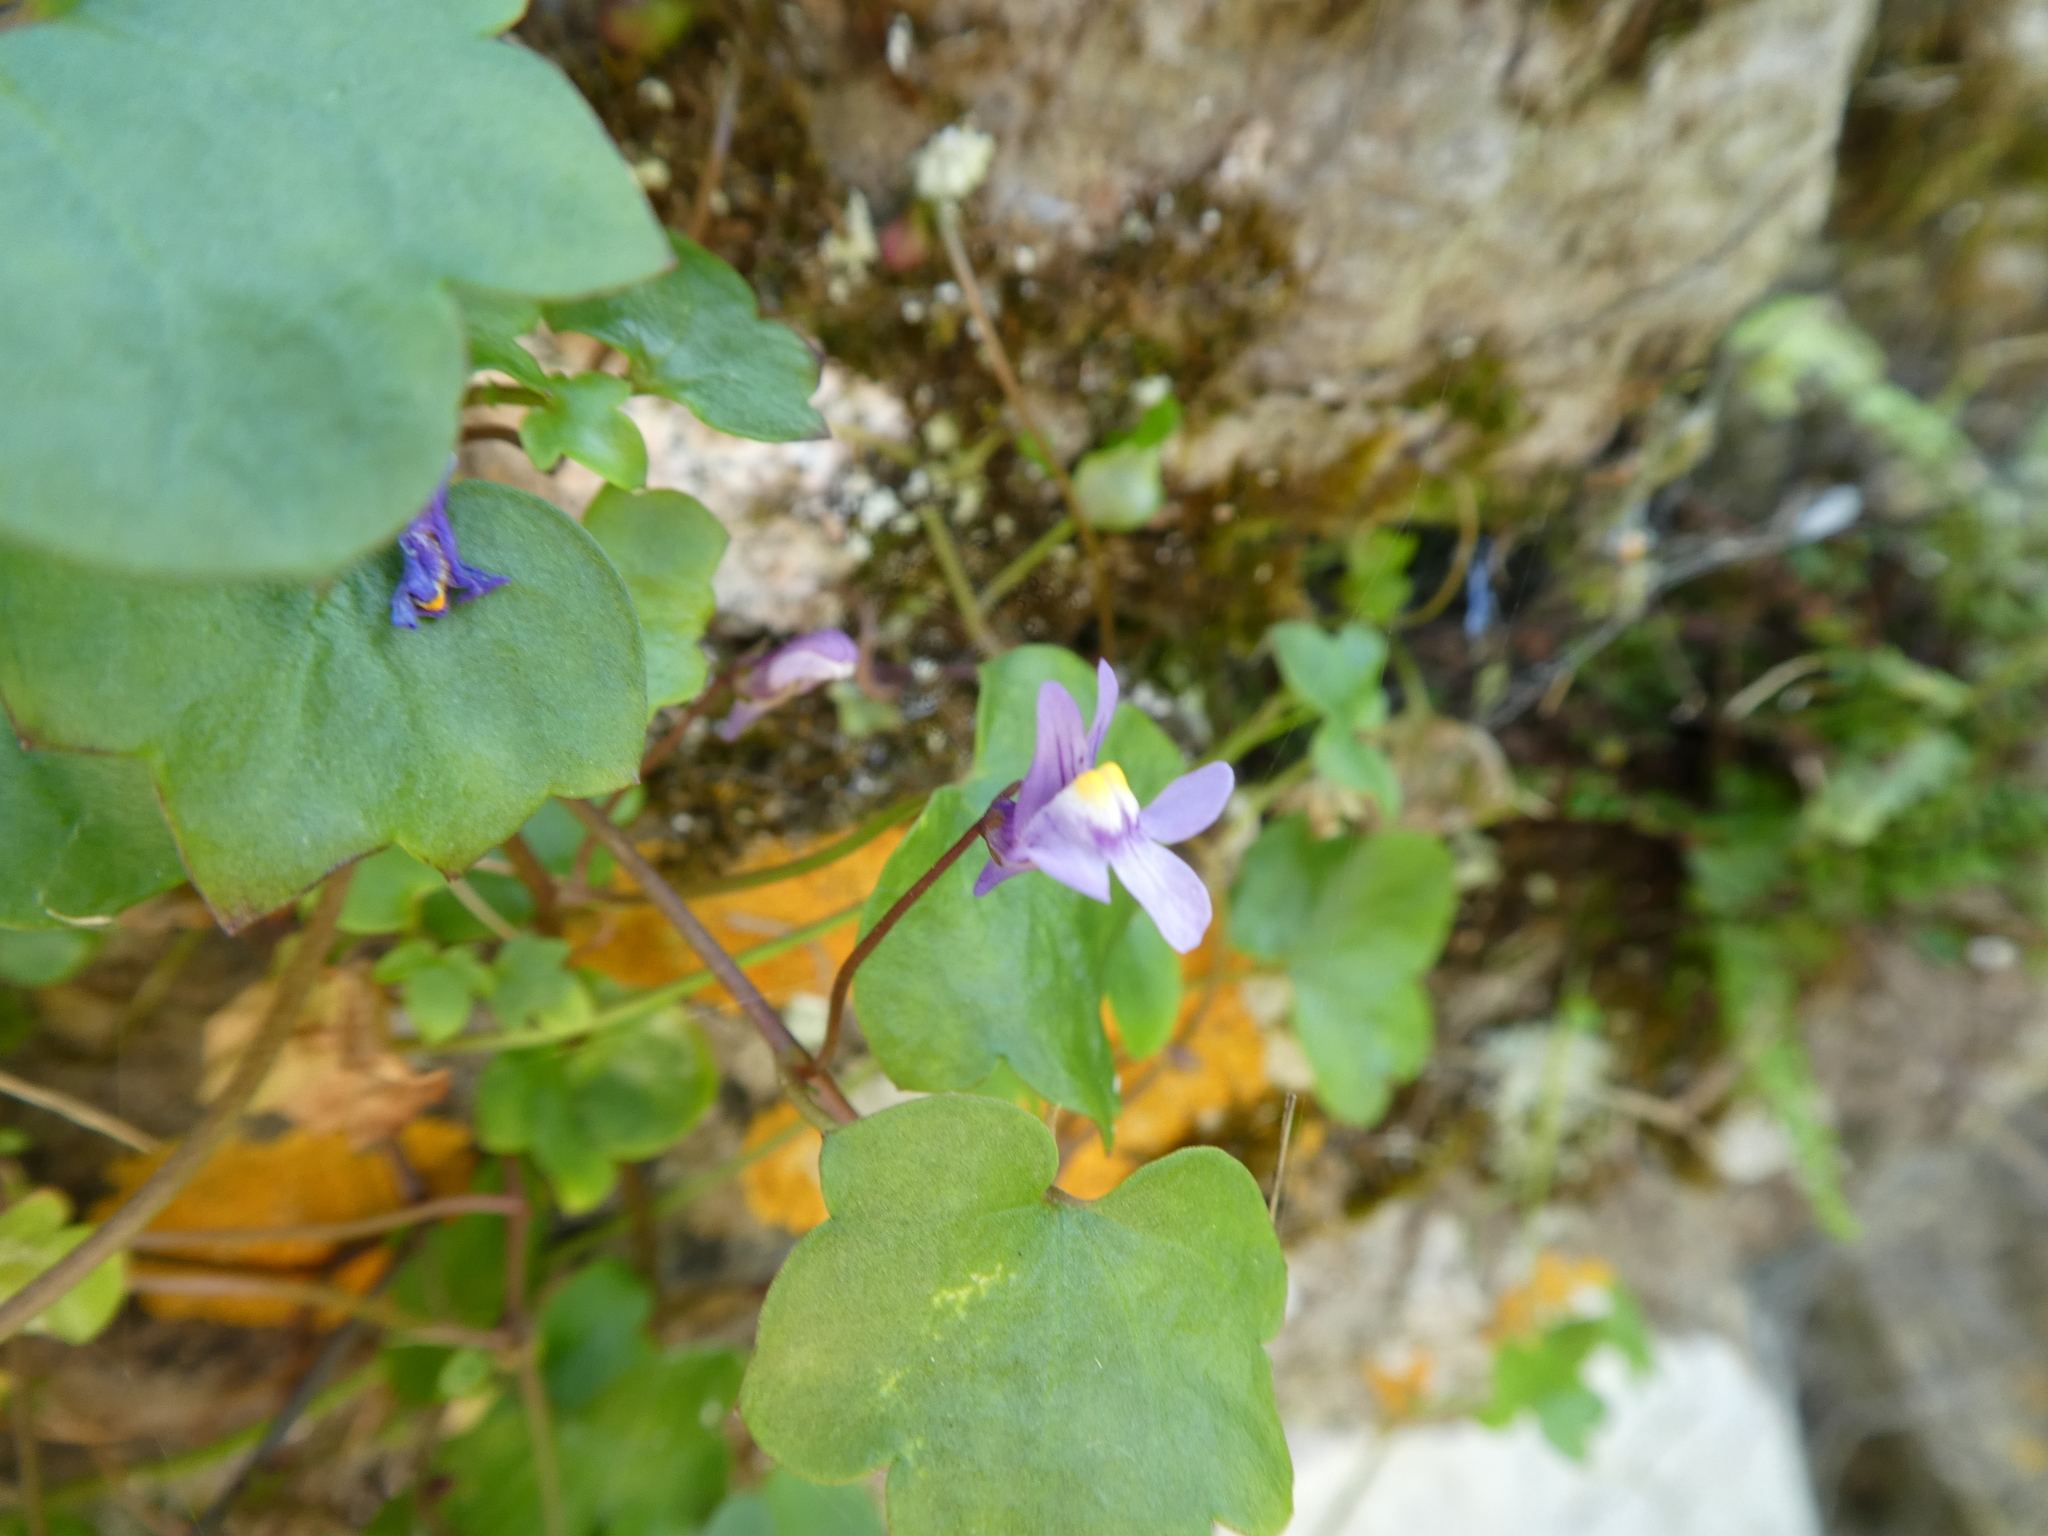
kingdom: Plantae
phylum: Tracheophyta
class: Magnoliopsida
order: Lamiales
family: Plantaginaceae
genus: Cymbalaria
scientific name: Cymbalaria muralis
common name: Ivy-leaved toadflax
